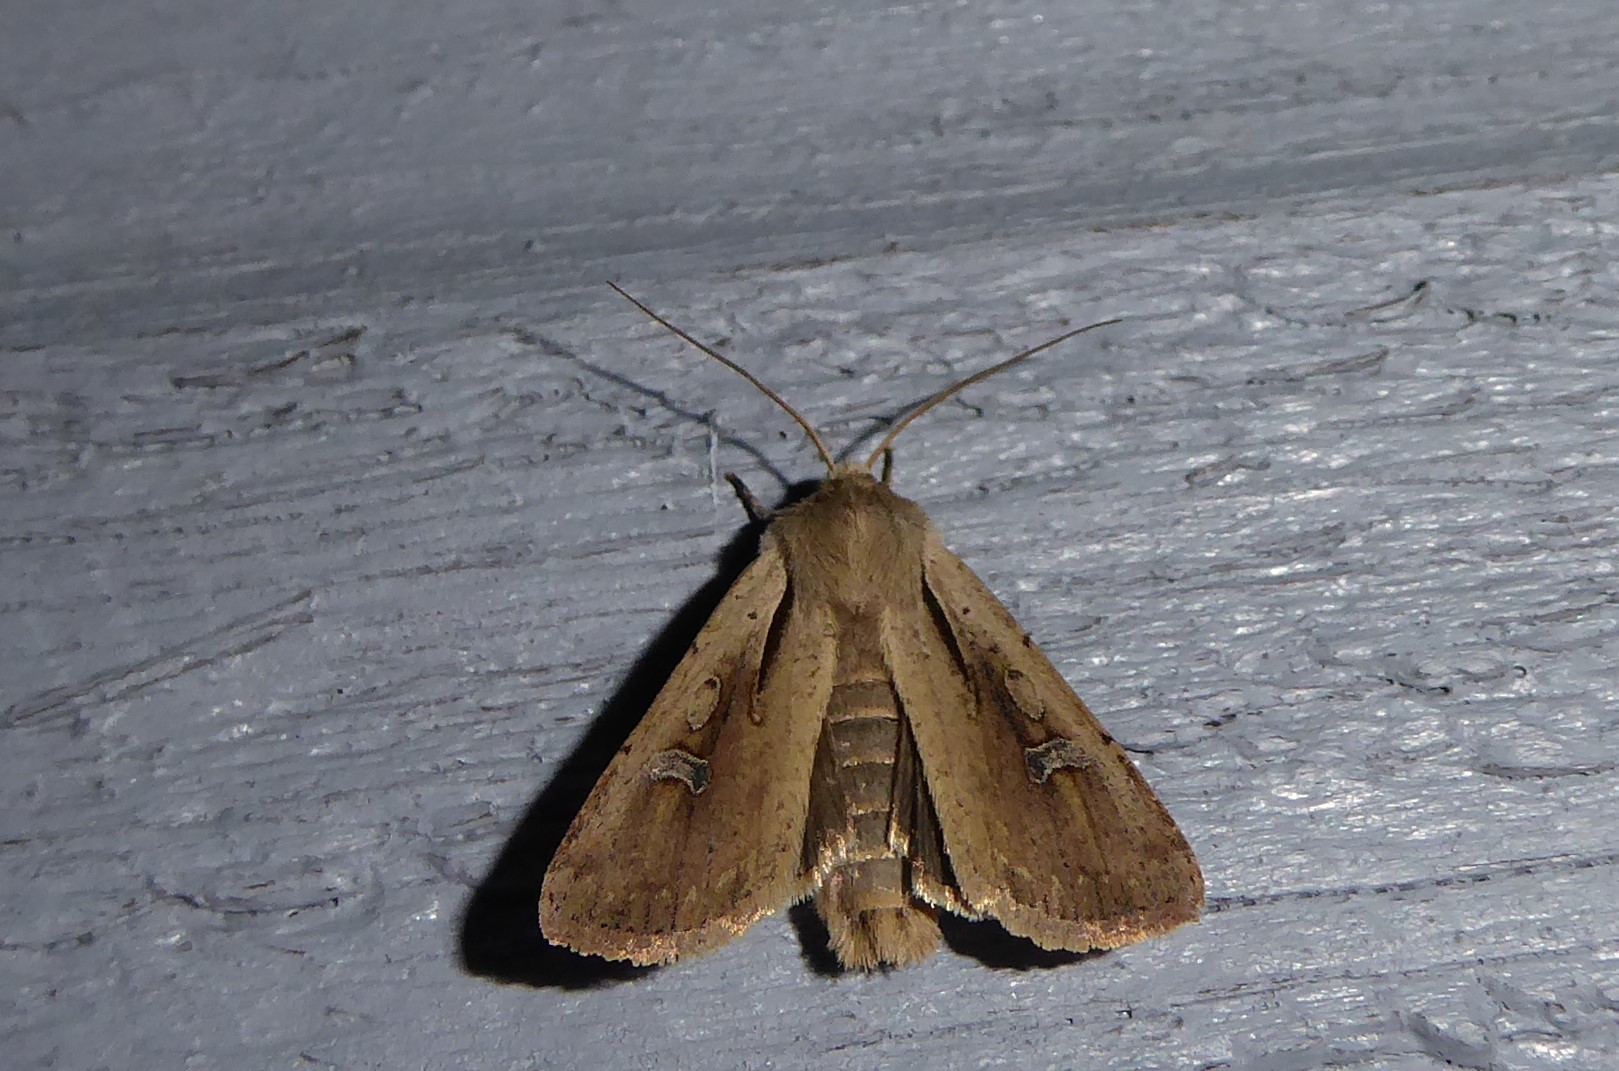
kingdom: Animalia
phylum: Arthropoda
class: Insecta
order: Lepidoptera
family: Noctuidae
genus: Ichneutica
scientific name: Ichneutica atristriga
